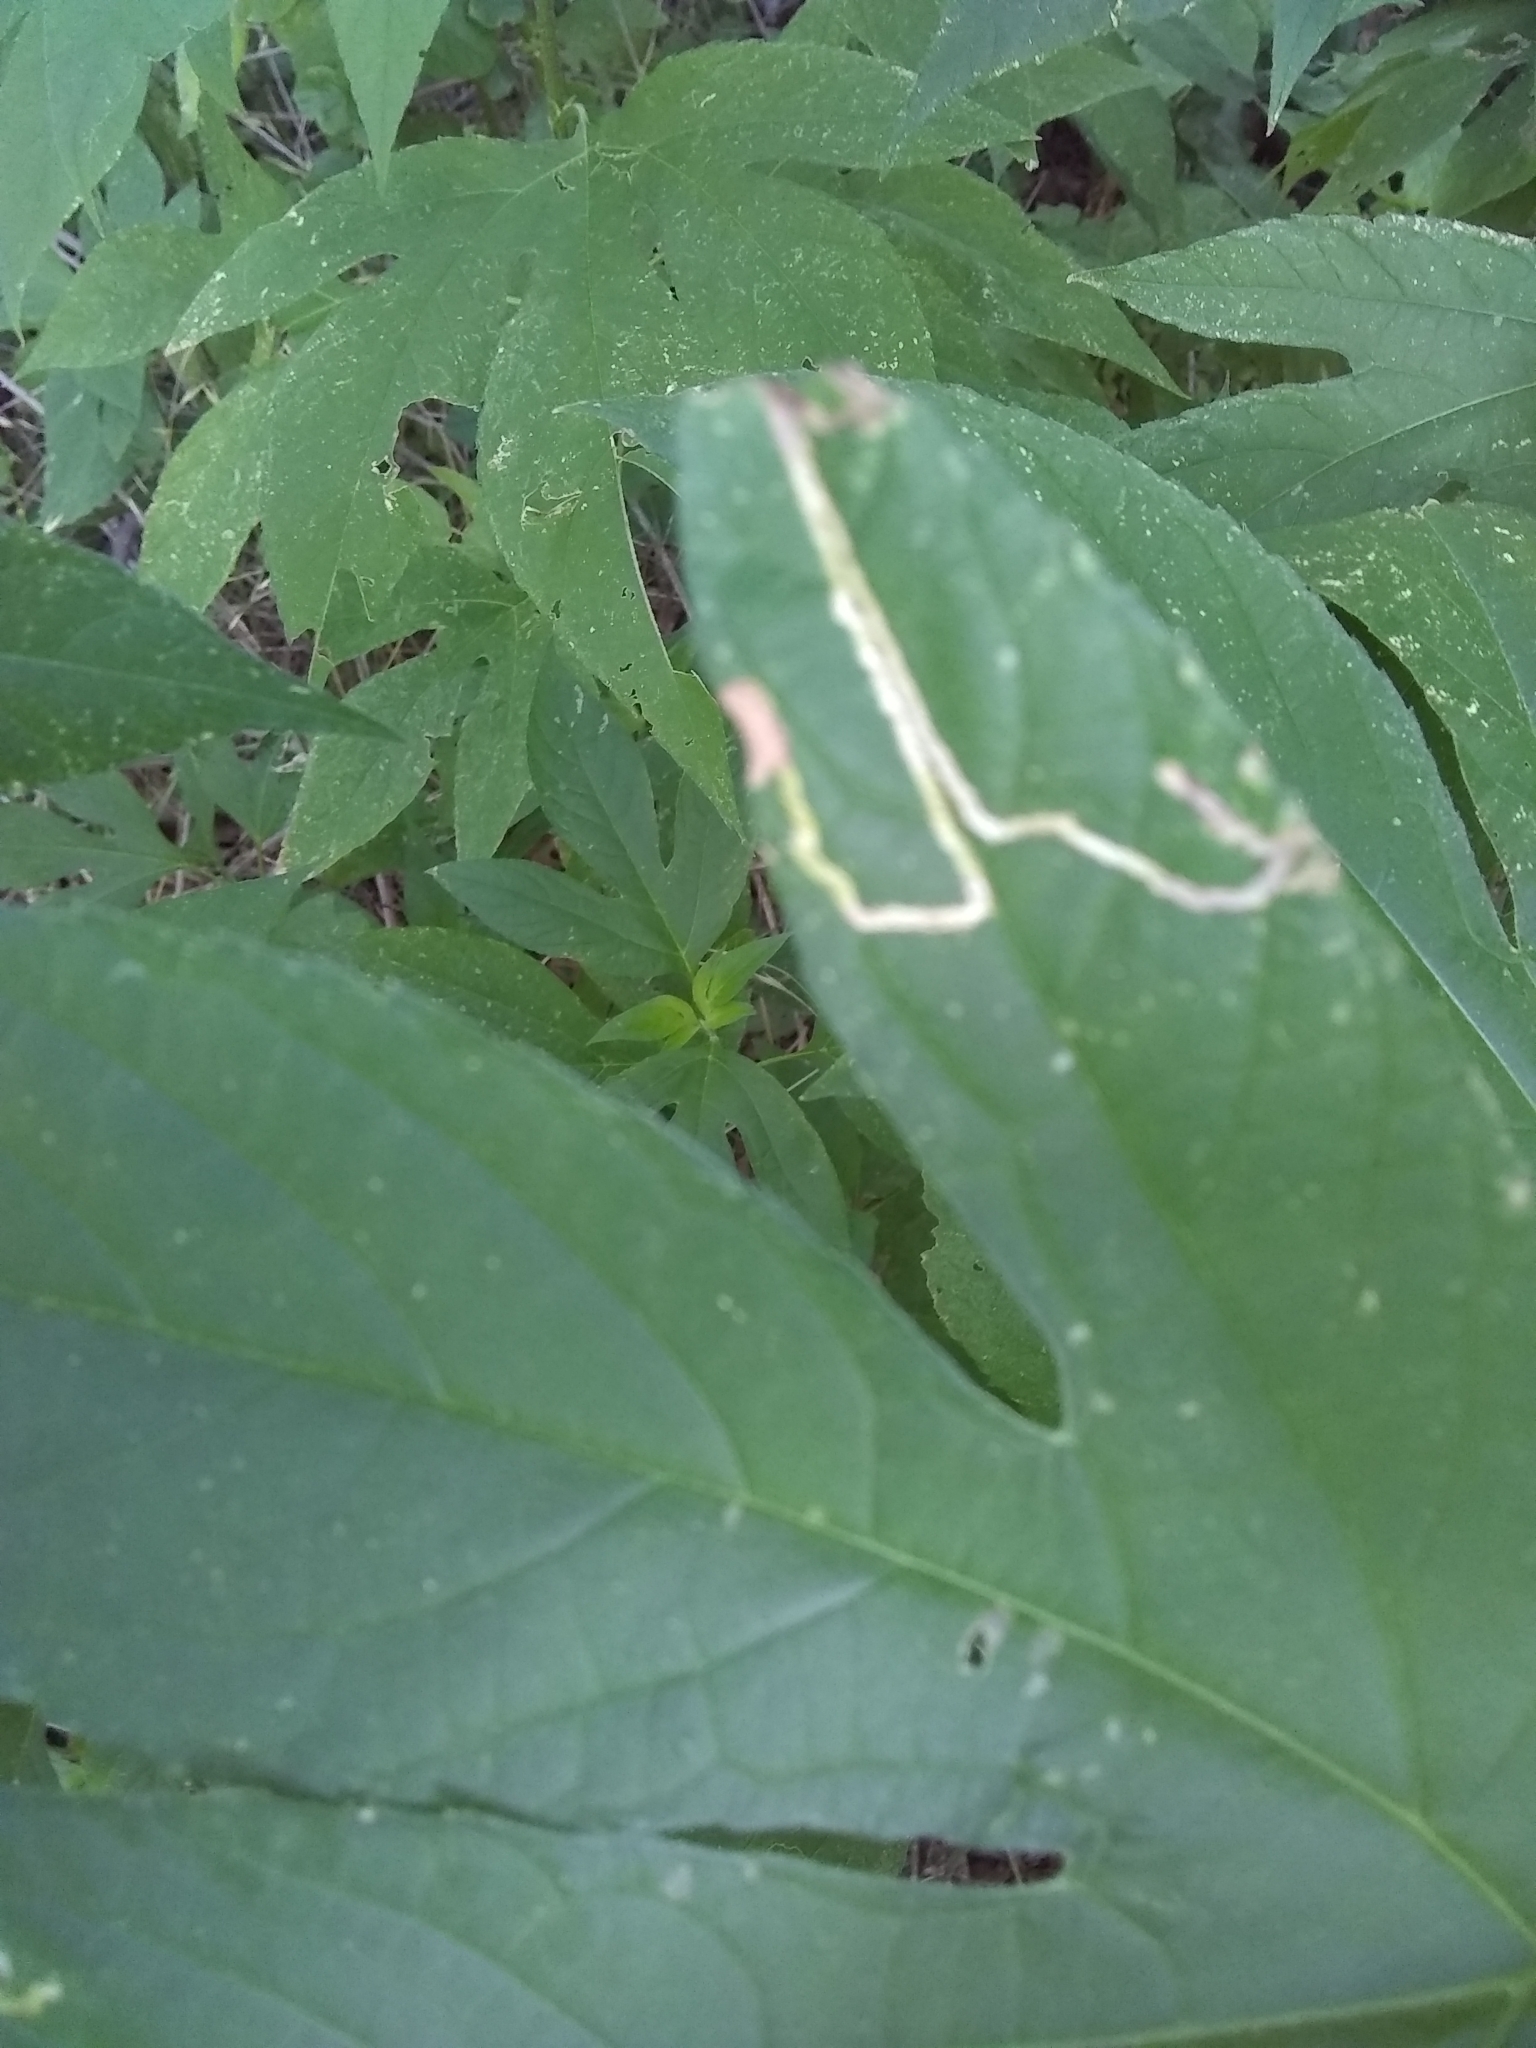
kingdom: Plantae
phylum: Tracheophyta
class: Magnoliopsida
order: Asterales
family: Asteraceae
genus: Ambrosia
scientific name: Ambrosia trifida
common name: Giant ragweed
